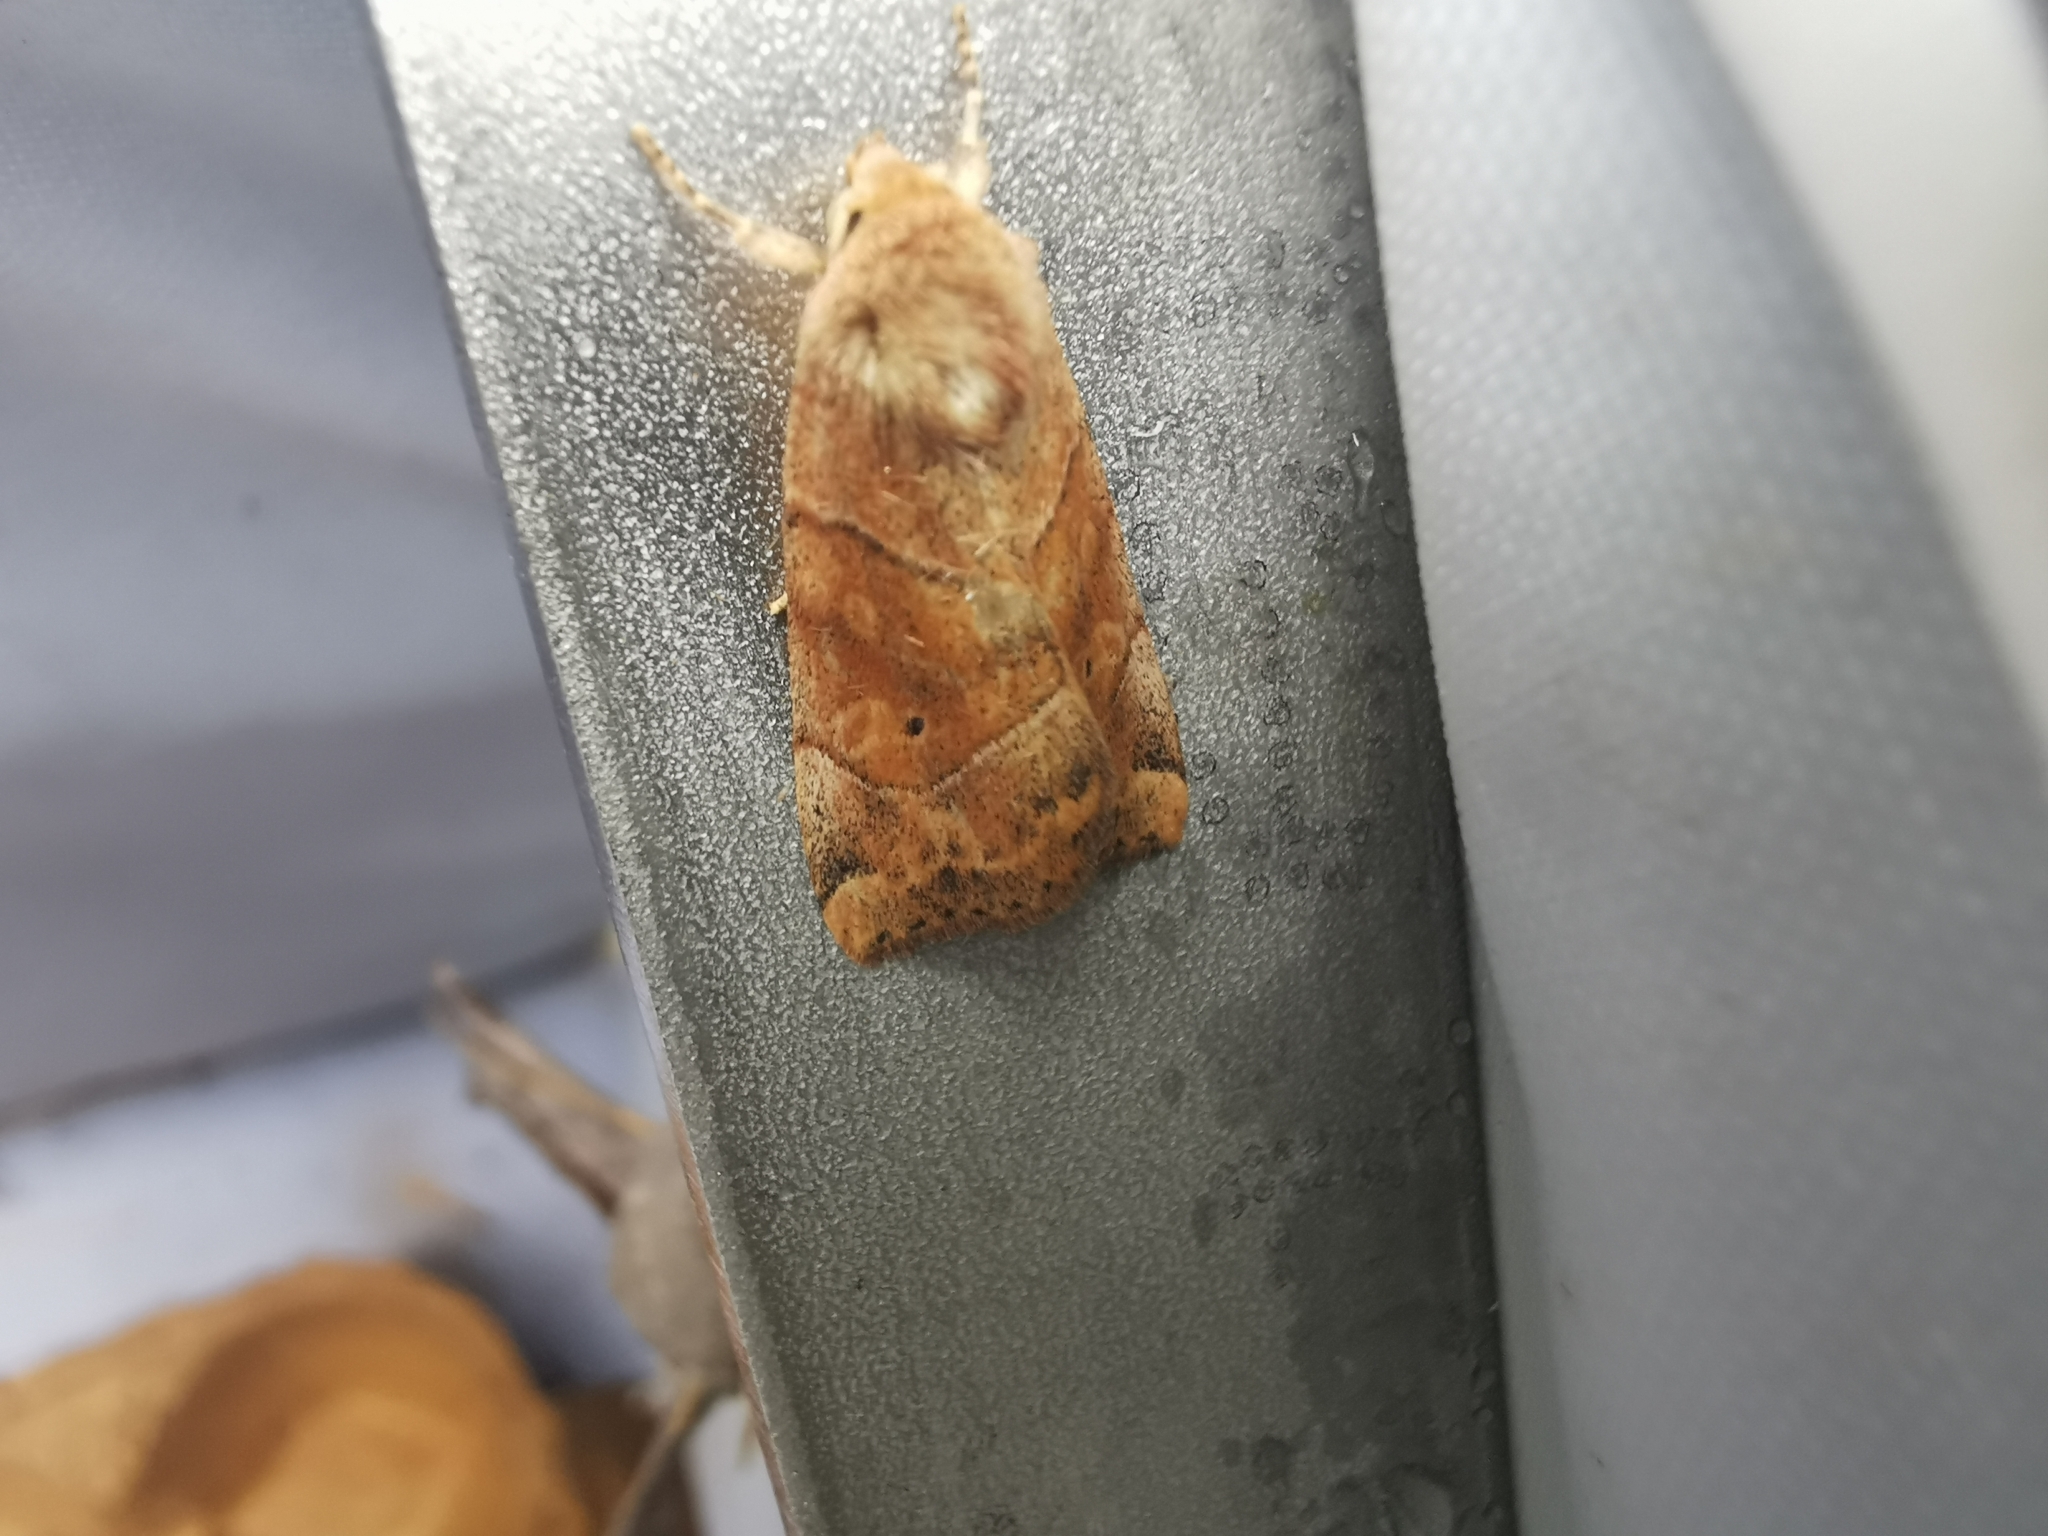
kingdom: Animalia
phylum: Arthropoda
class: Insecta
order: Lepidoptera
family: Noctuidae
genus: Cosmia
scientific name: Cosmia trapezina
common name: Dun-bar
